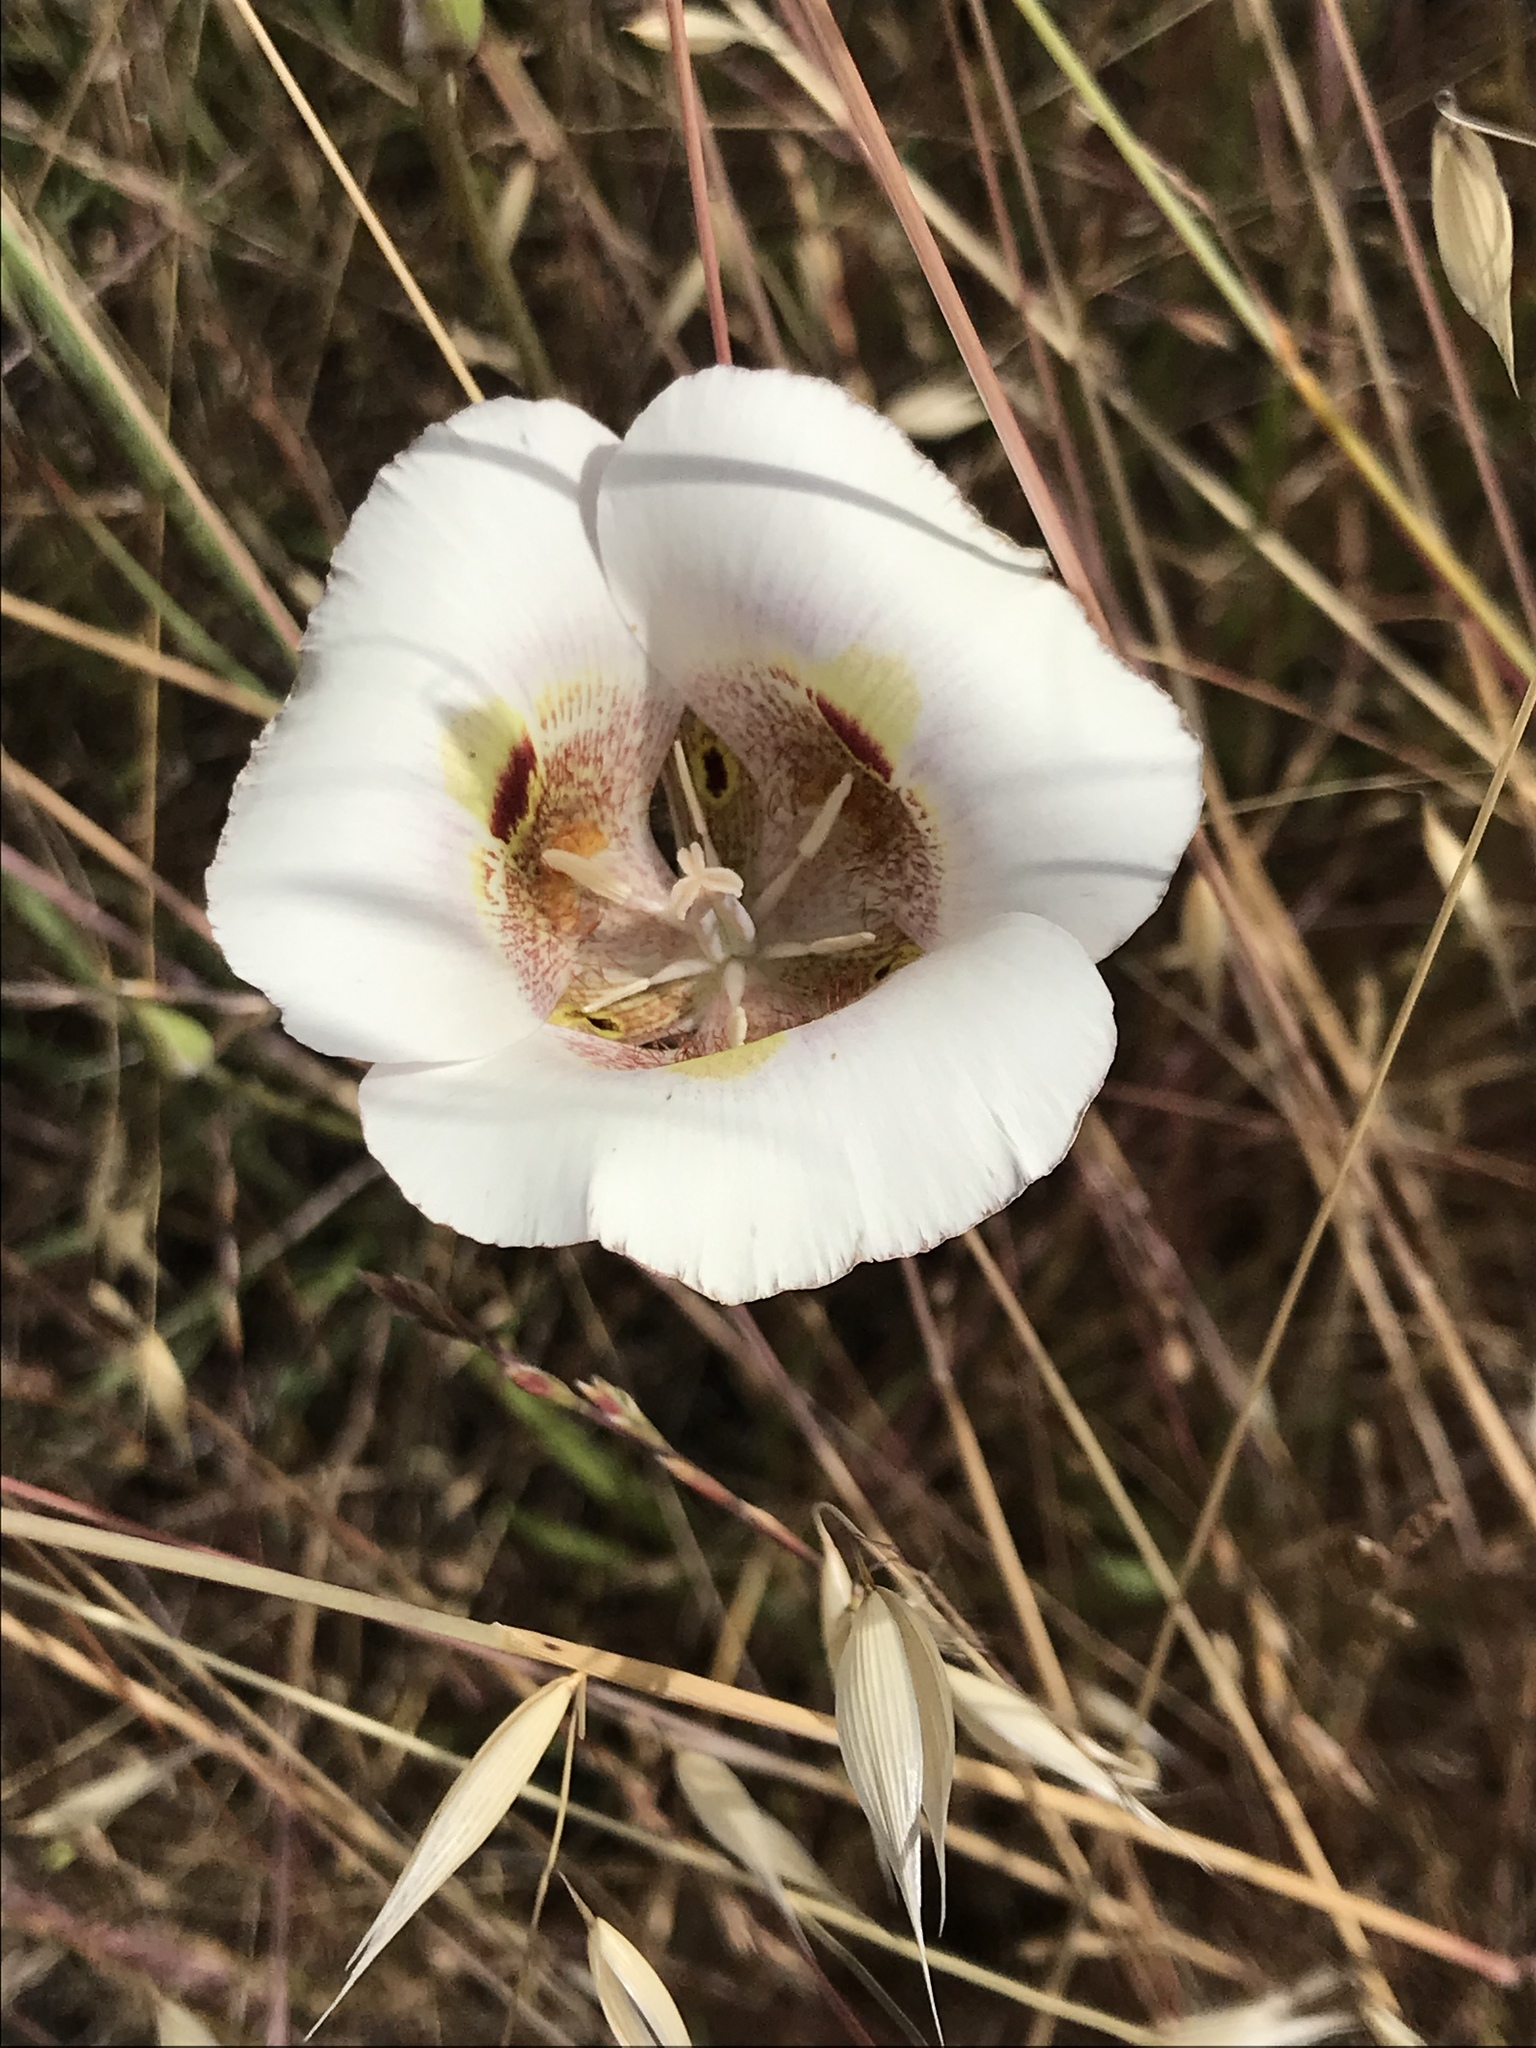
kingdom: Plantae
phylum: Tracheophyta
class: Liliopsida
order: Liliales
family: Liliaceae
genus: Calochortus
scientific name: Calochortus argillosus
